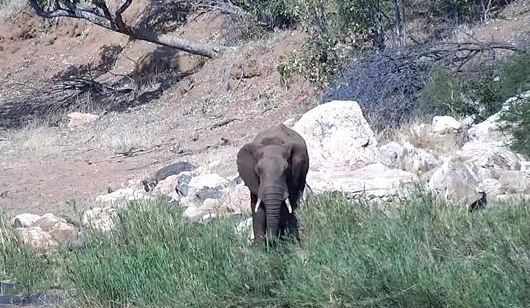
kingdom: Animalia
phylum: Chordata
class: Mammalia
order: Proboscidea
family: Elephantidae
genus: Loxodonta
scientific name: Loxodonta africana
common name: African elephant
